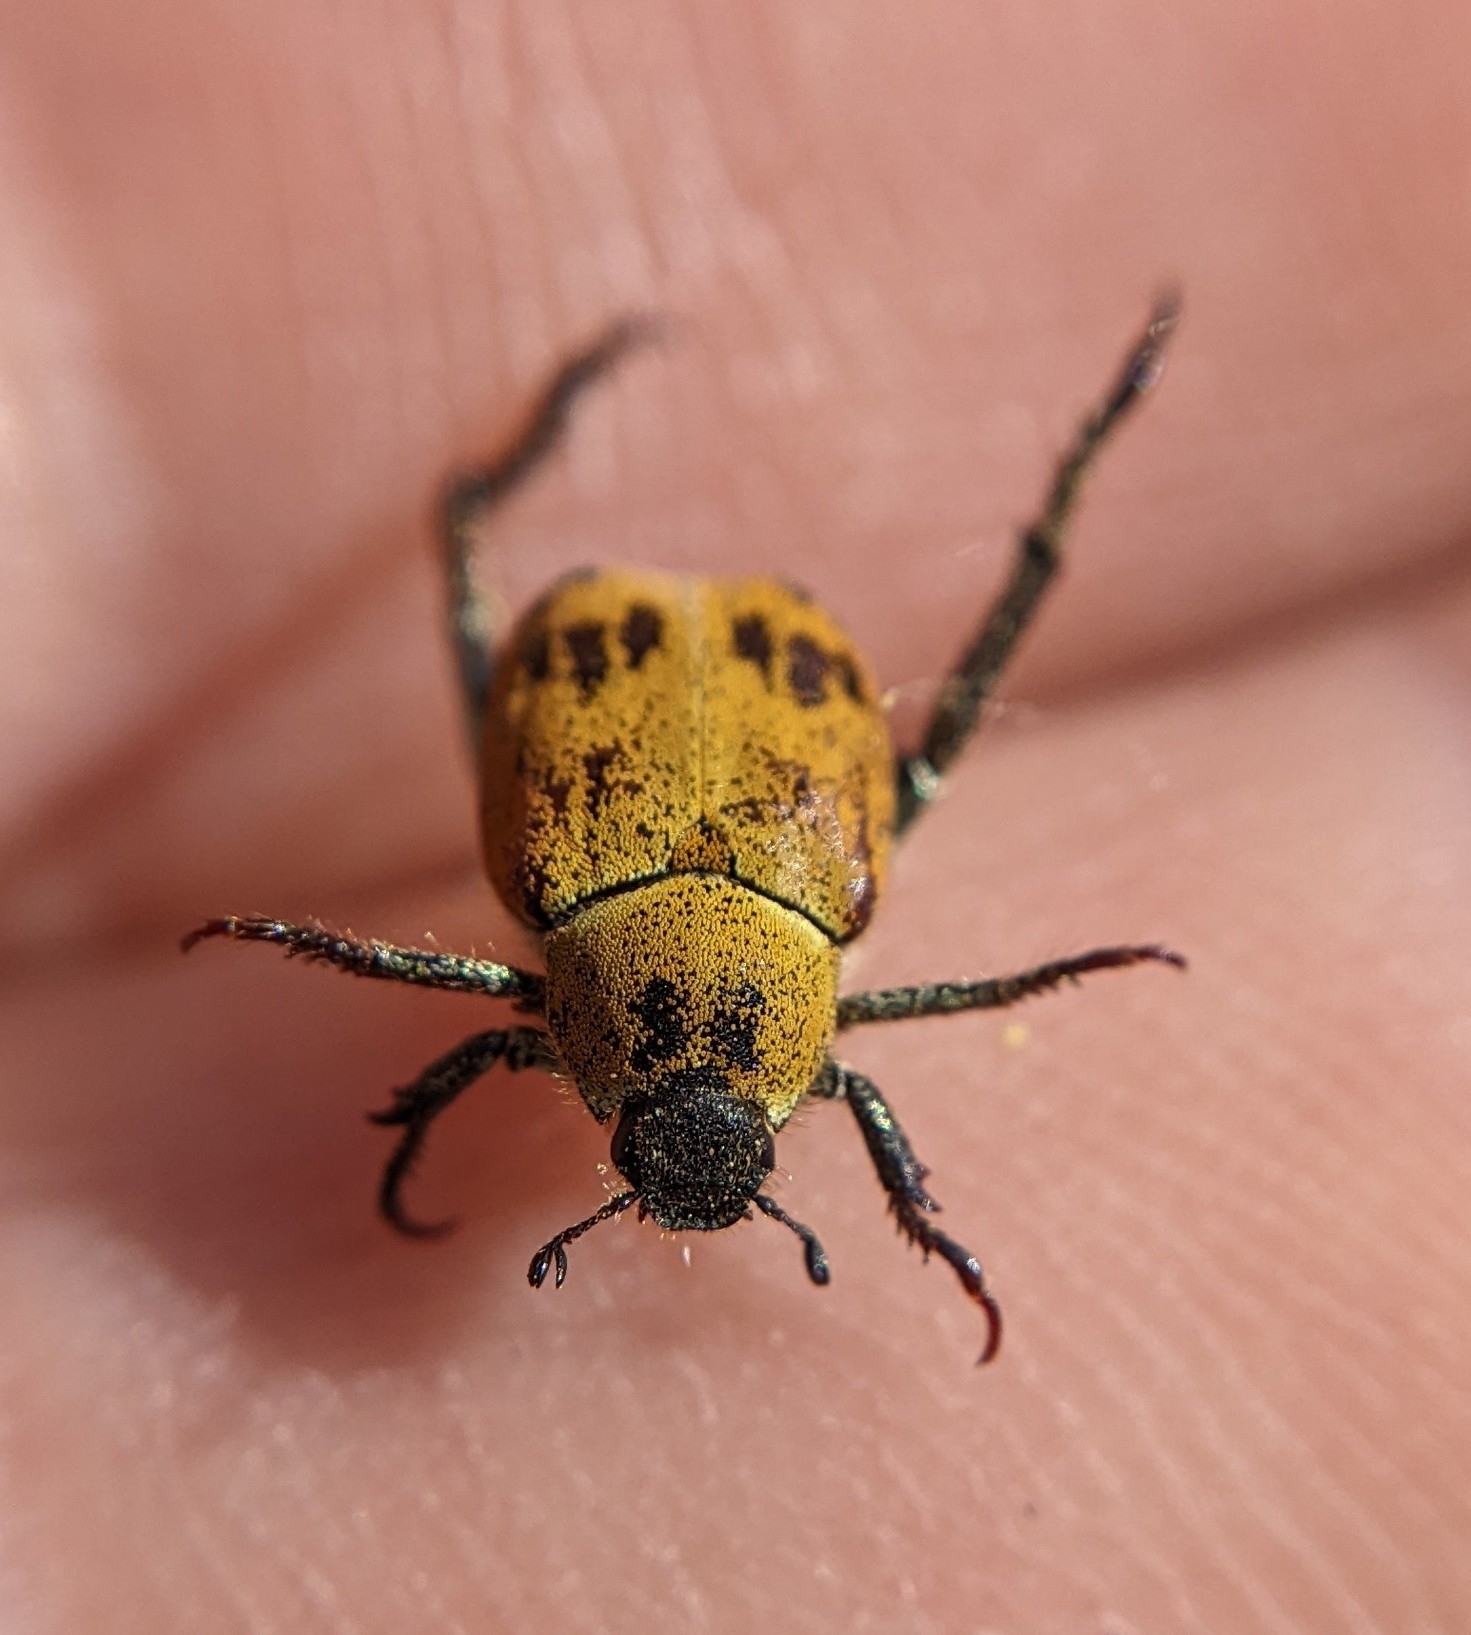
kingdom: Animalia
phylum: Arthropoda
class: Insecta
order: Coleoptera
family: Scarabaeidae
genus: Hoplia
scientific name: Hoplia dispar
